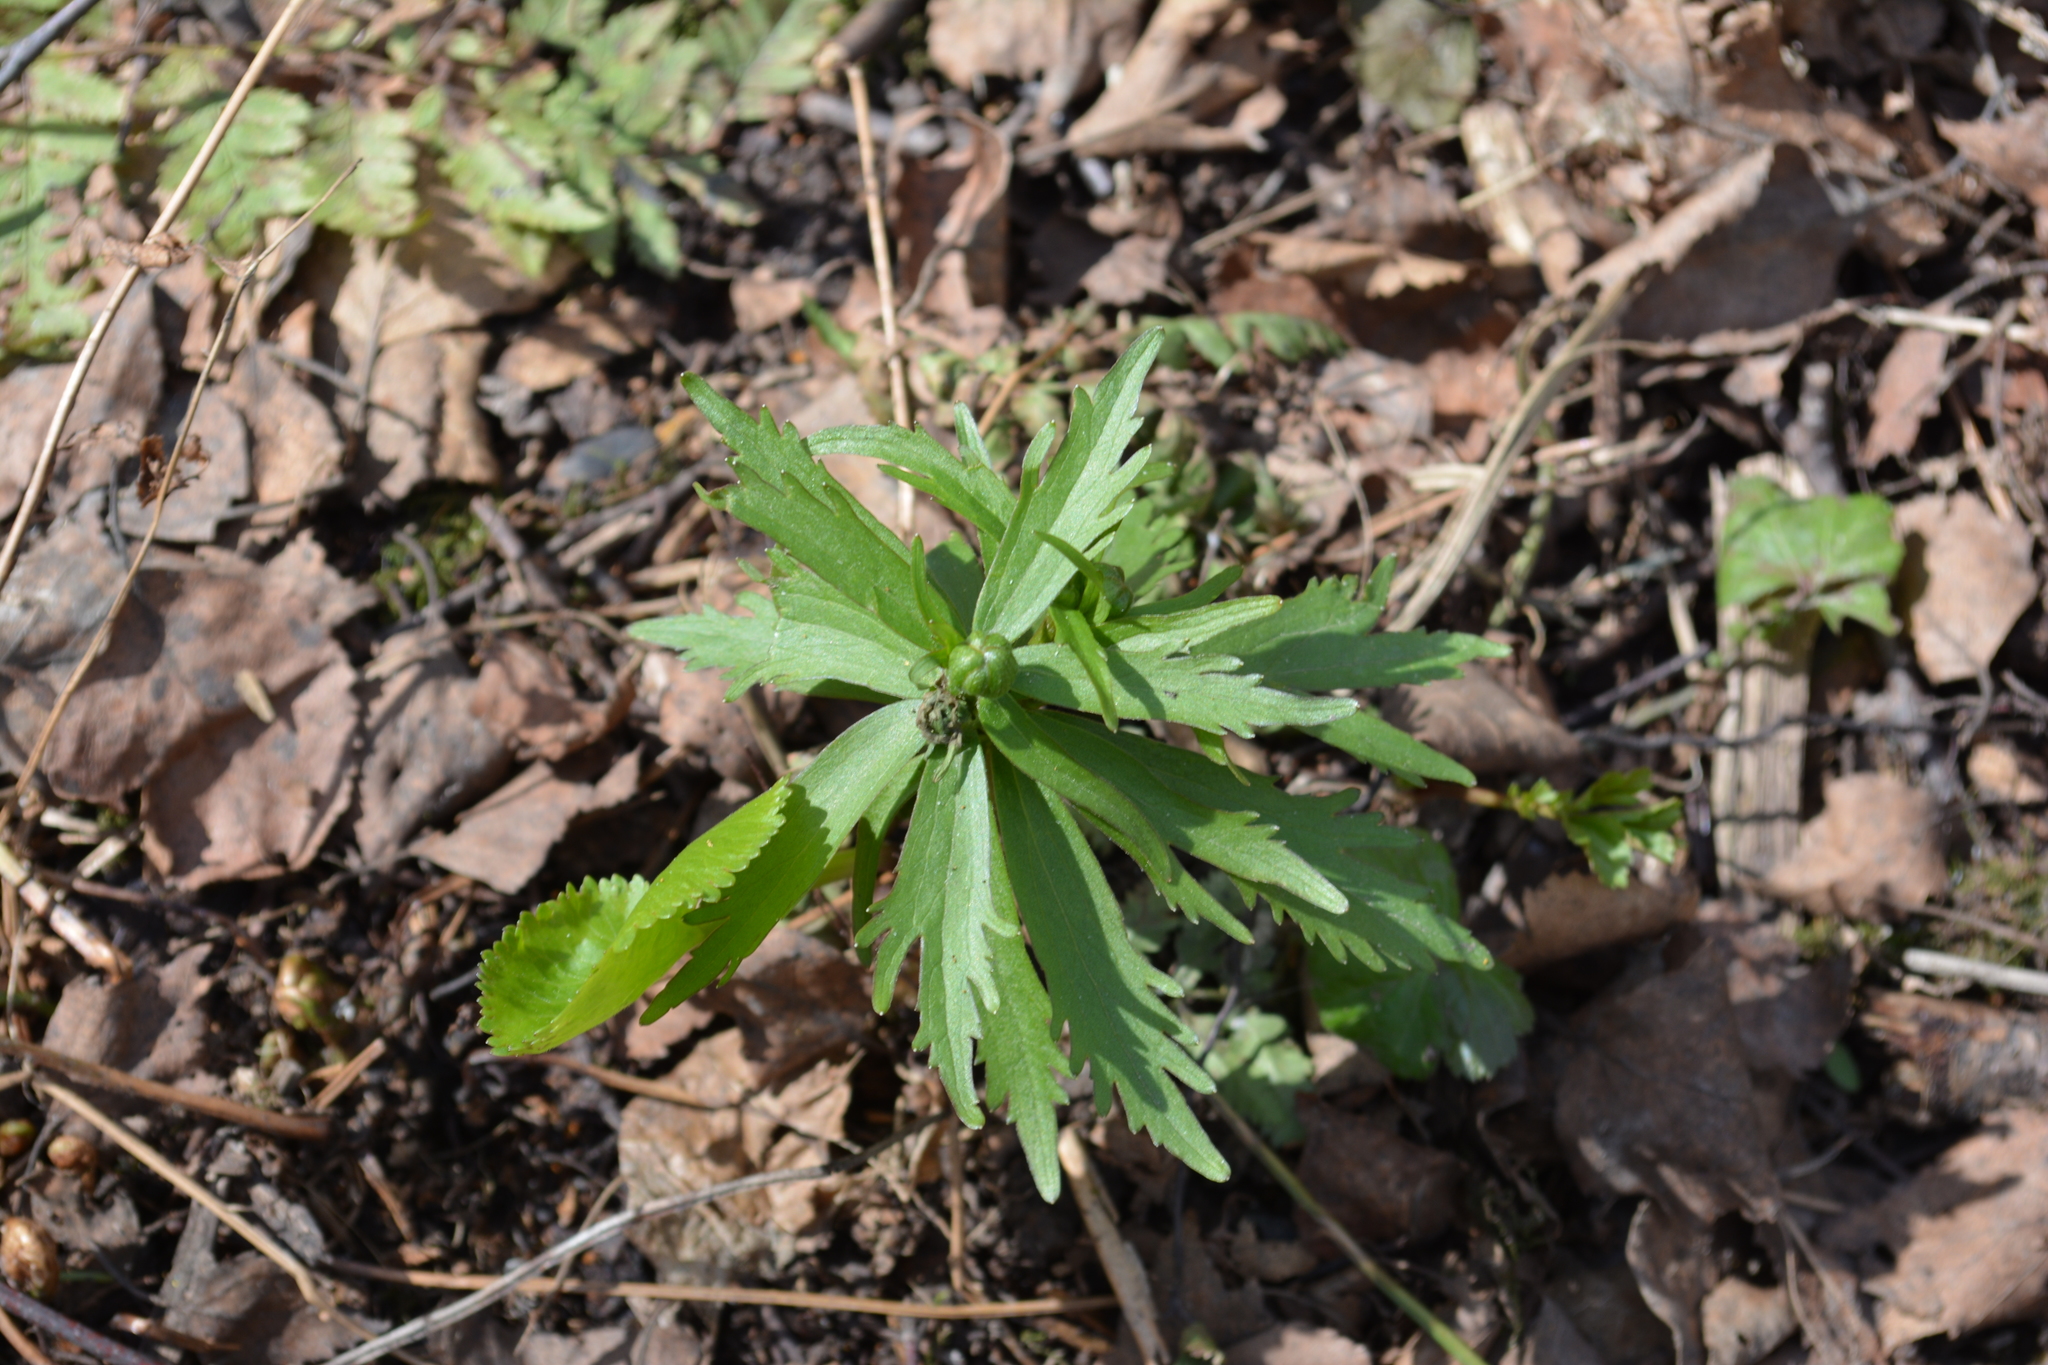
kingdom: Plantae
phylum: Tracheophyta
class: Magnoliopsida
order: Ranunculales
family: Ranunculaceae
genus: Ranunculus
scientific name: Ranunculus cassubicus
